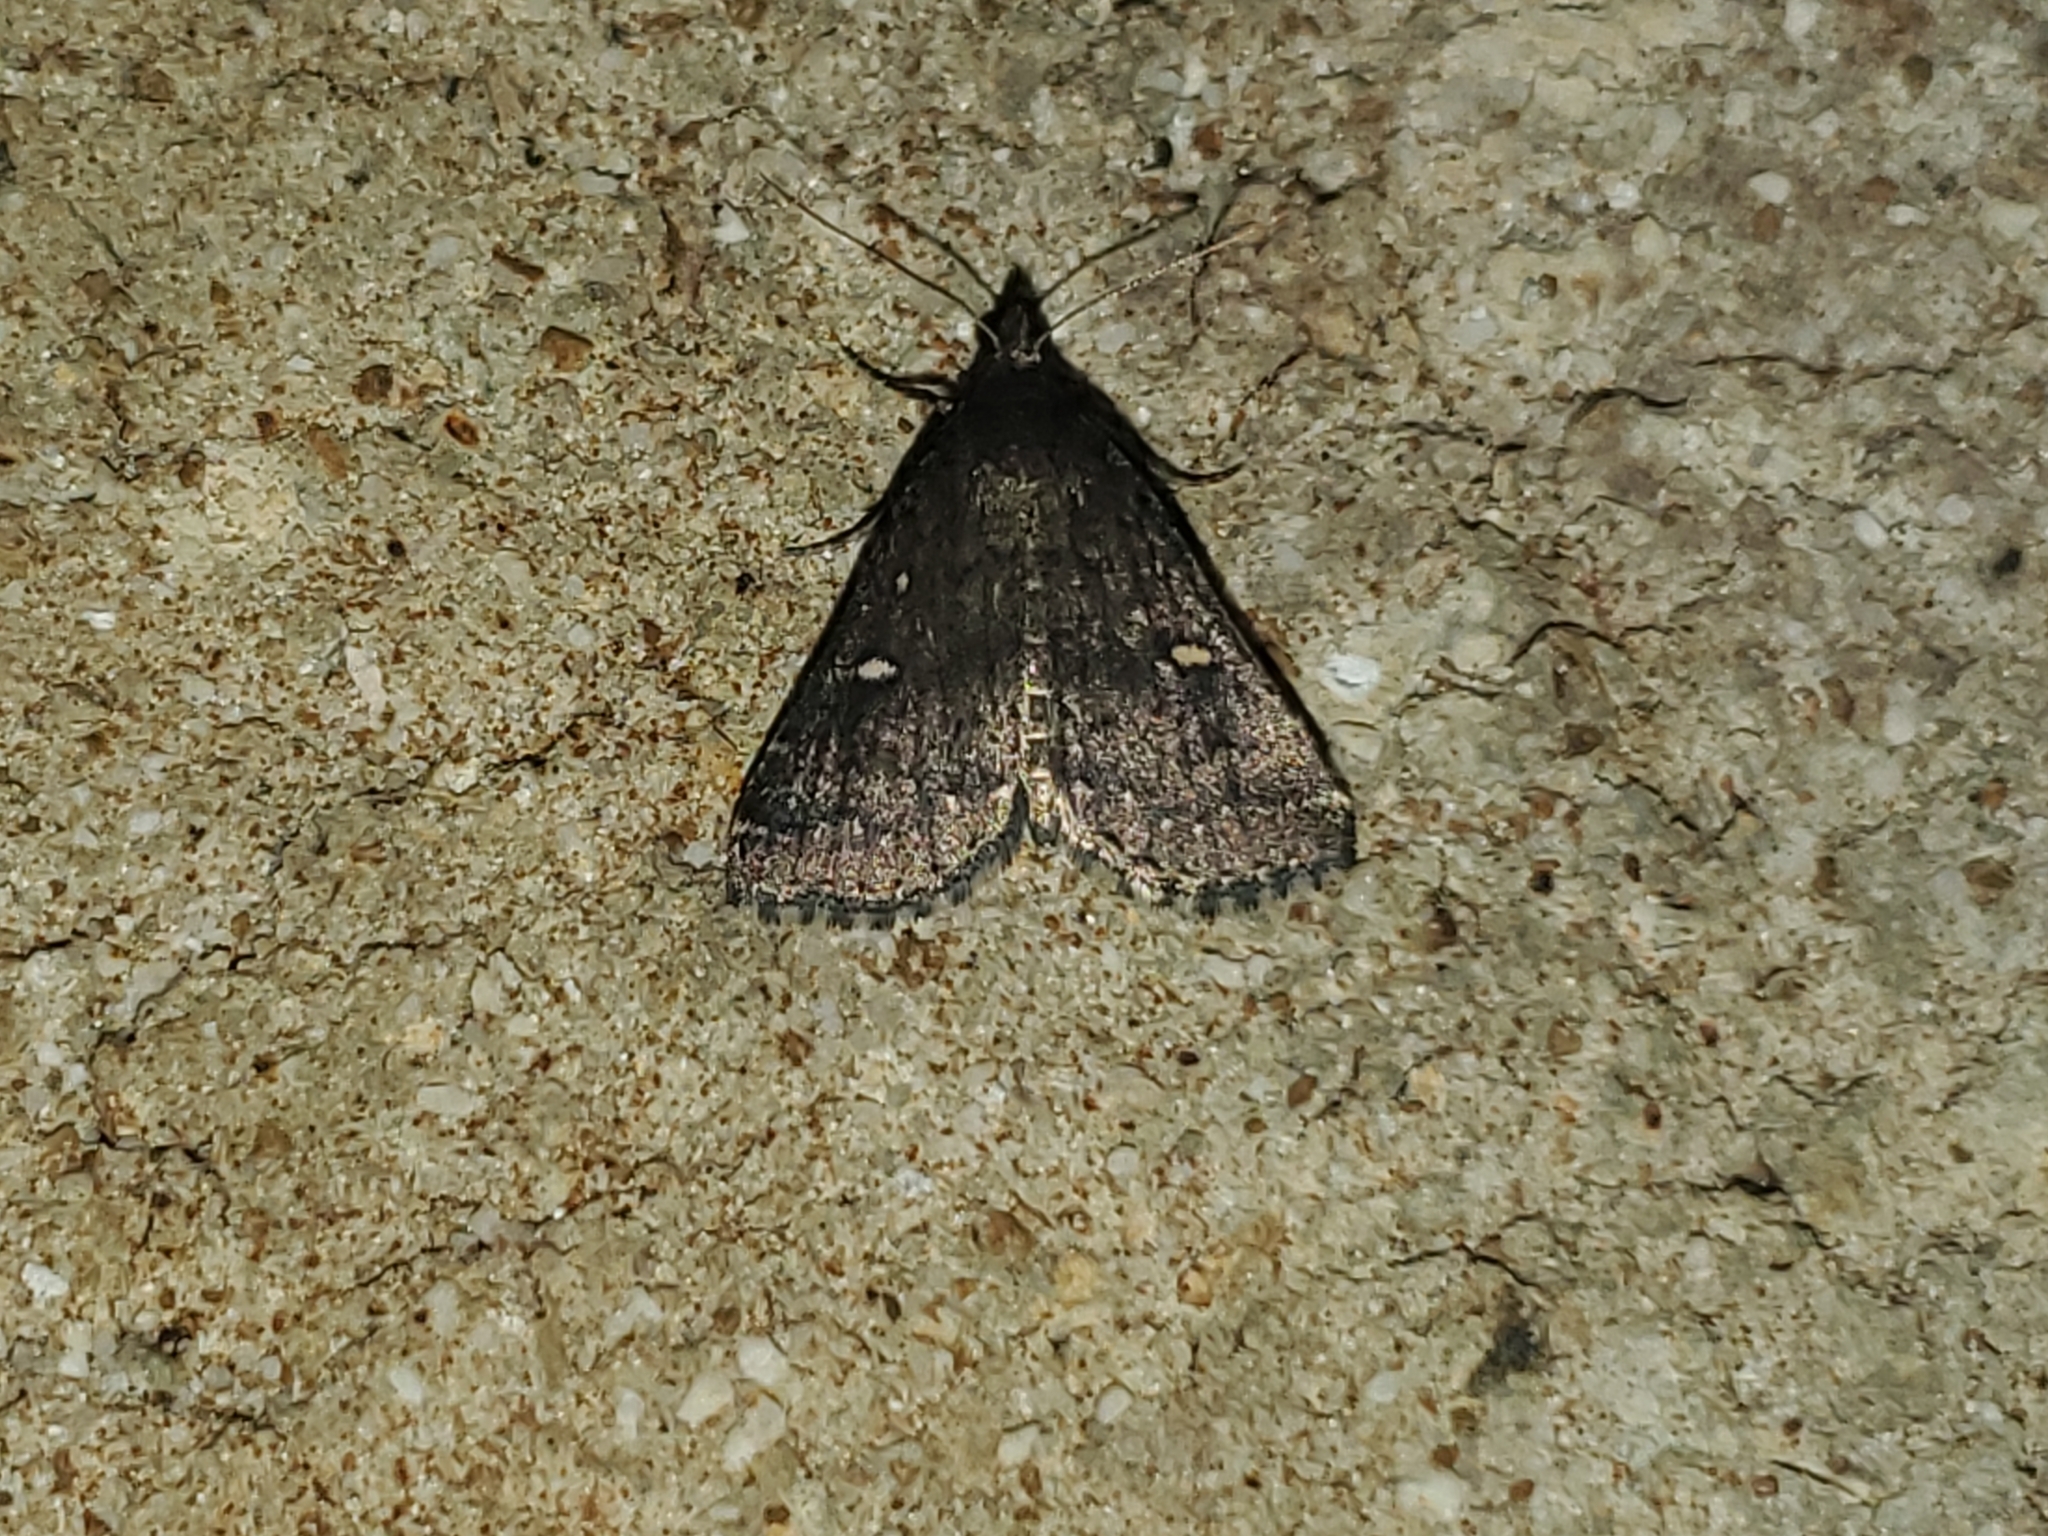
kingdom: Animalia
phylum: Arthropoda
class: Insecta
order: Lepidoptera
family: Erebidae
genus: Tetanolita
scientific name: Tetanolita mynesalis
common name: Smoky tetanolita moth
